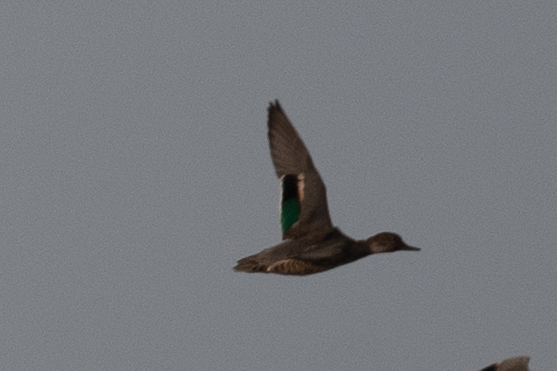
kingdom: Animalia
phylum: Chordata
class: Aves
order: Anseriformes
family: Anatidae
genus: Anas
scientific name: Anas crecca
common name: Eurasian teal
